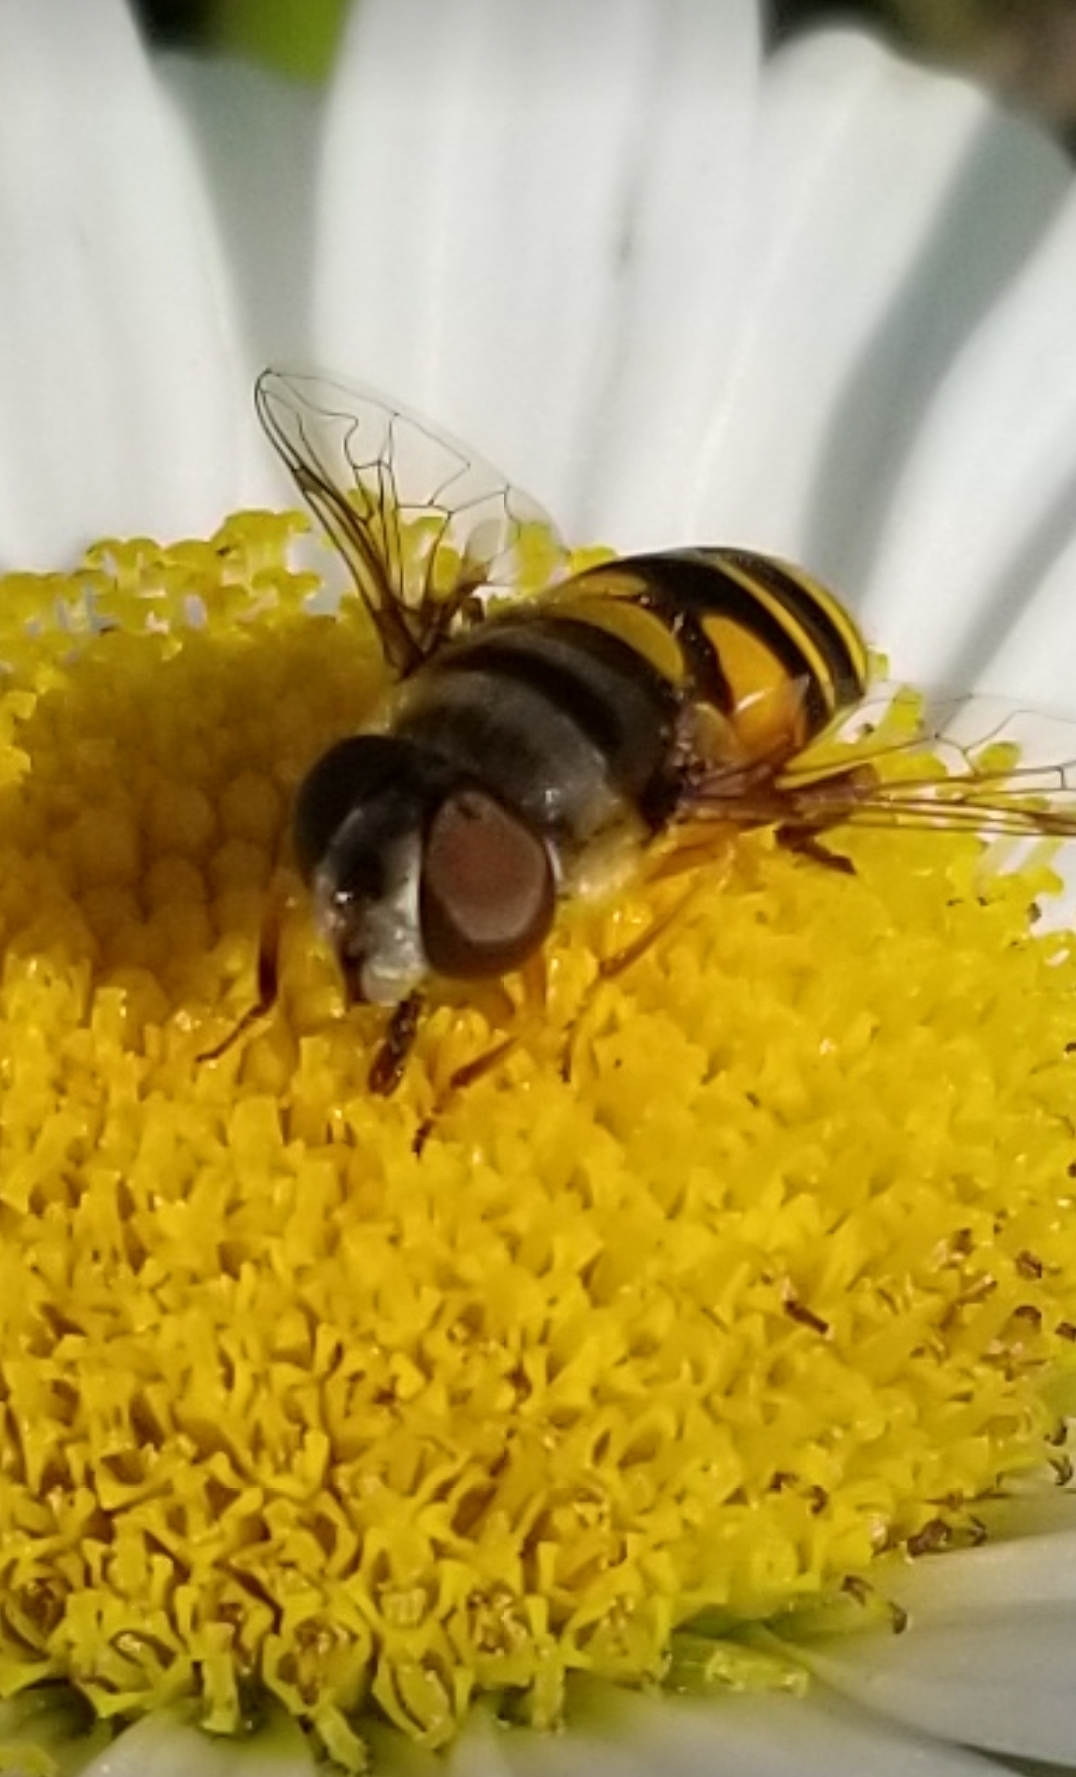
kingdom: Animalia
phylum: Arthropoda
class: Insecta
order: Diptera
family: Syrphidae
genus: Eristalis
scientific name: Eristalis transversa
